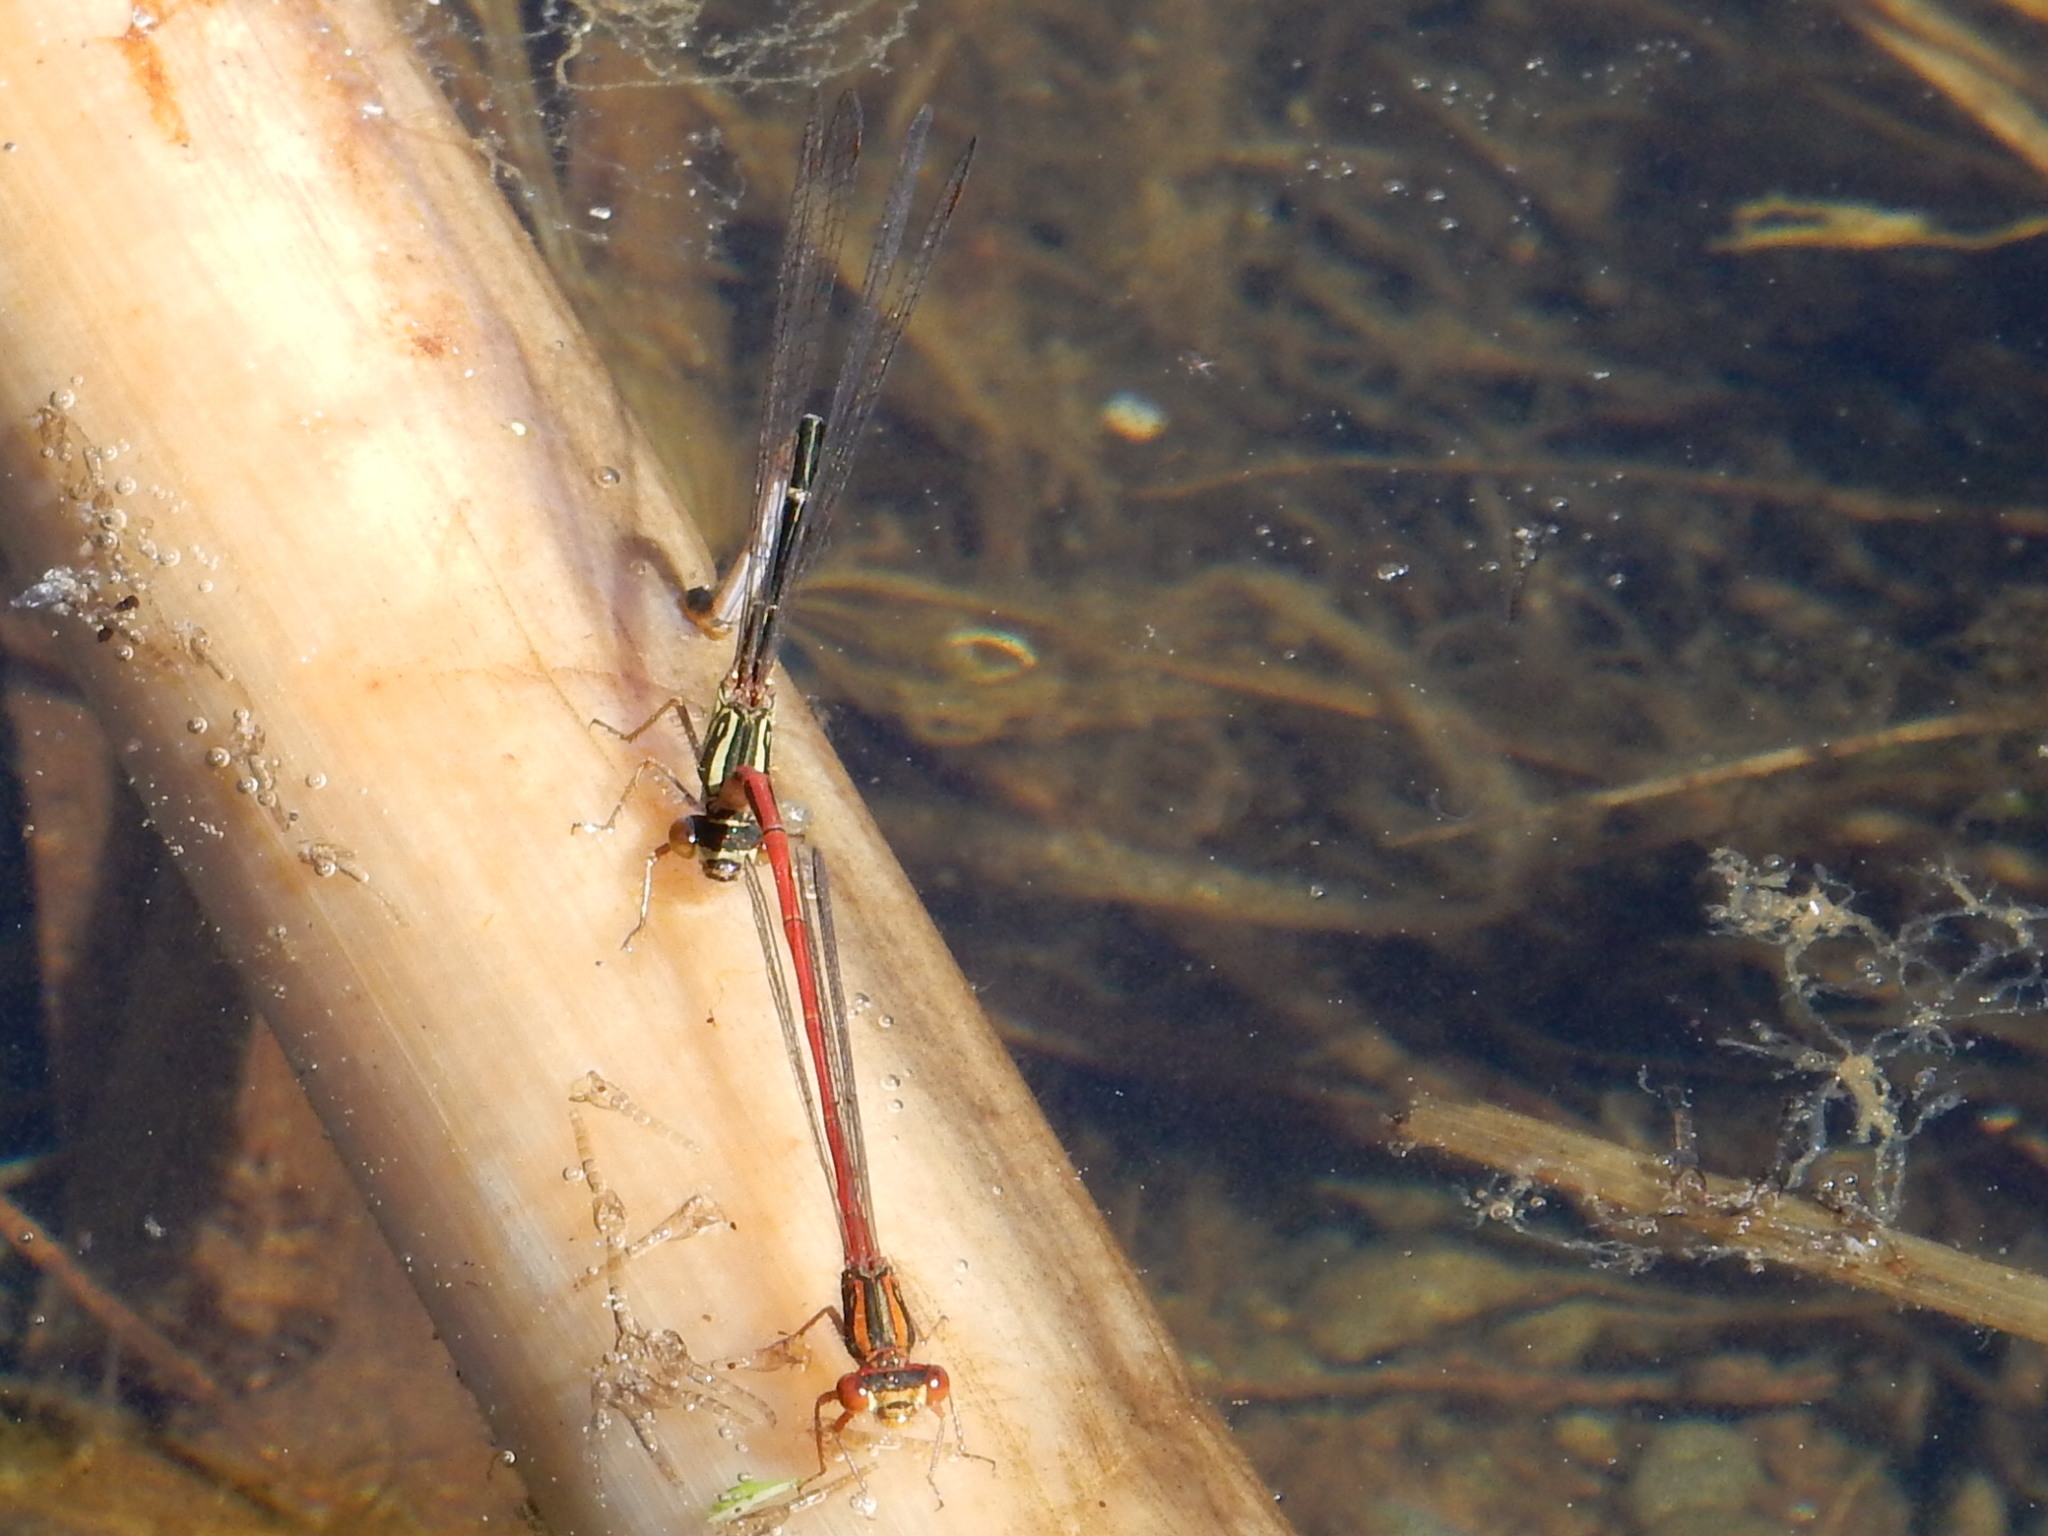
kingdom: Animalia
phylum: Arthropoda
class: Insecta
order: Odonata
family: Coenagrionidae
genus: Xanthocnemis
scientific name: Xanthocnemis zealandica
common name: Common redcoat damselfly
